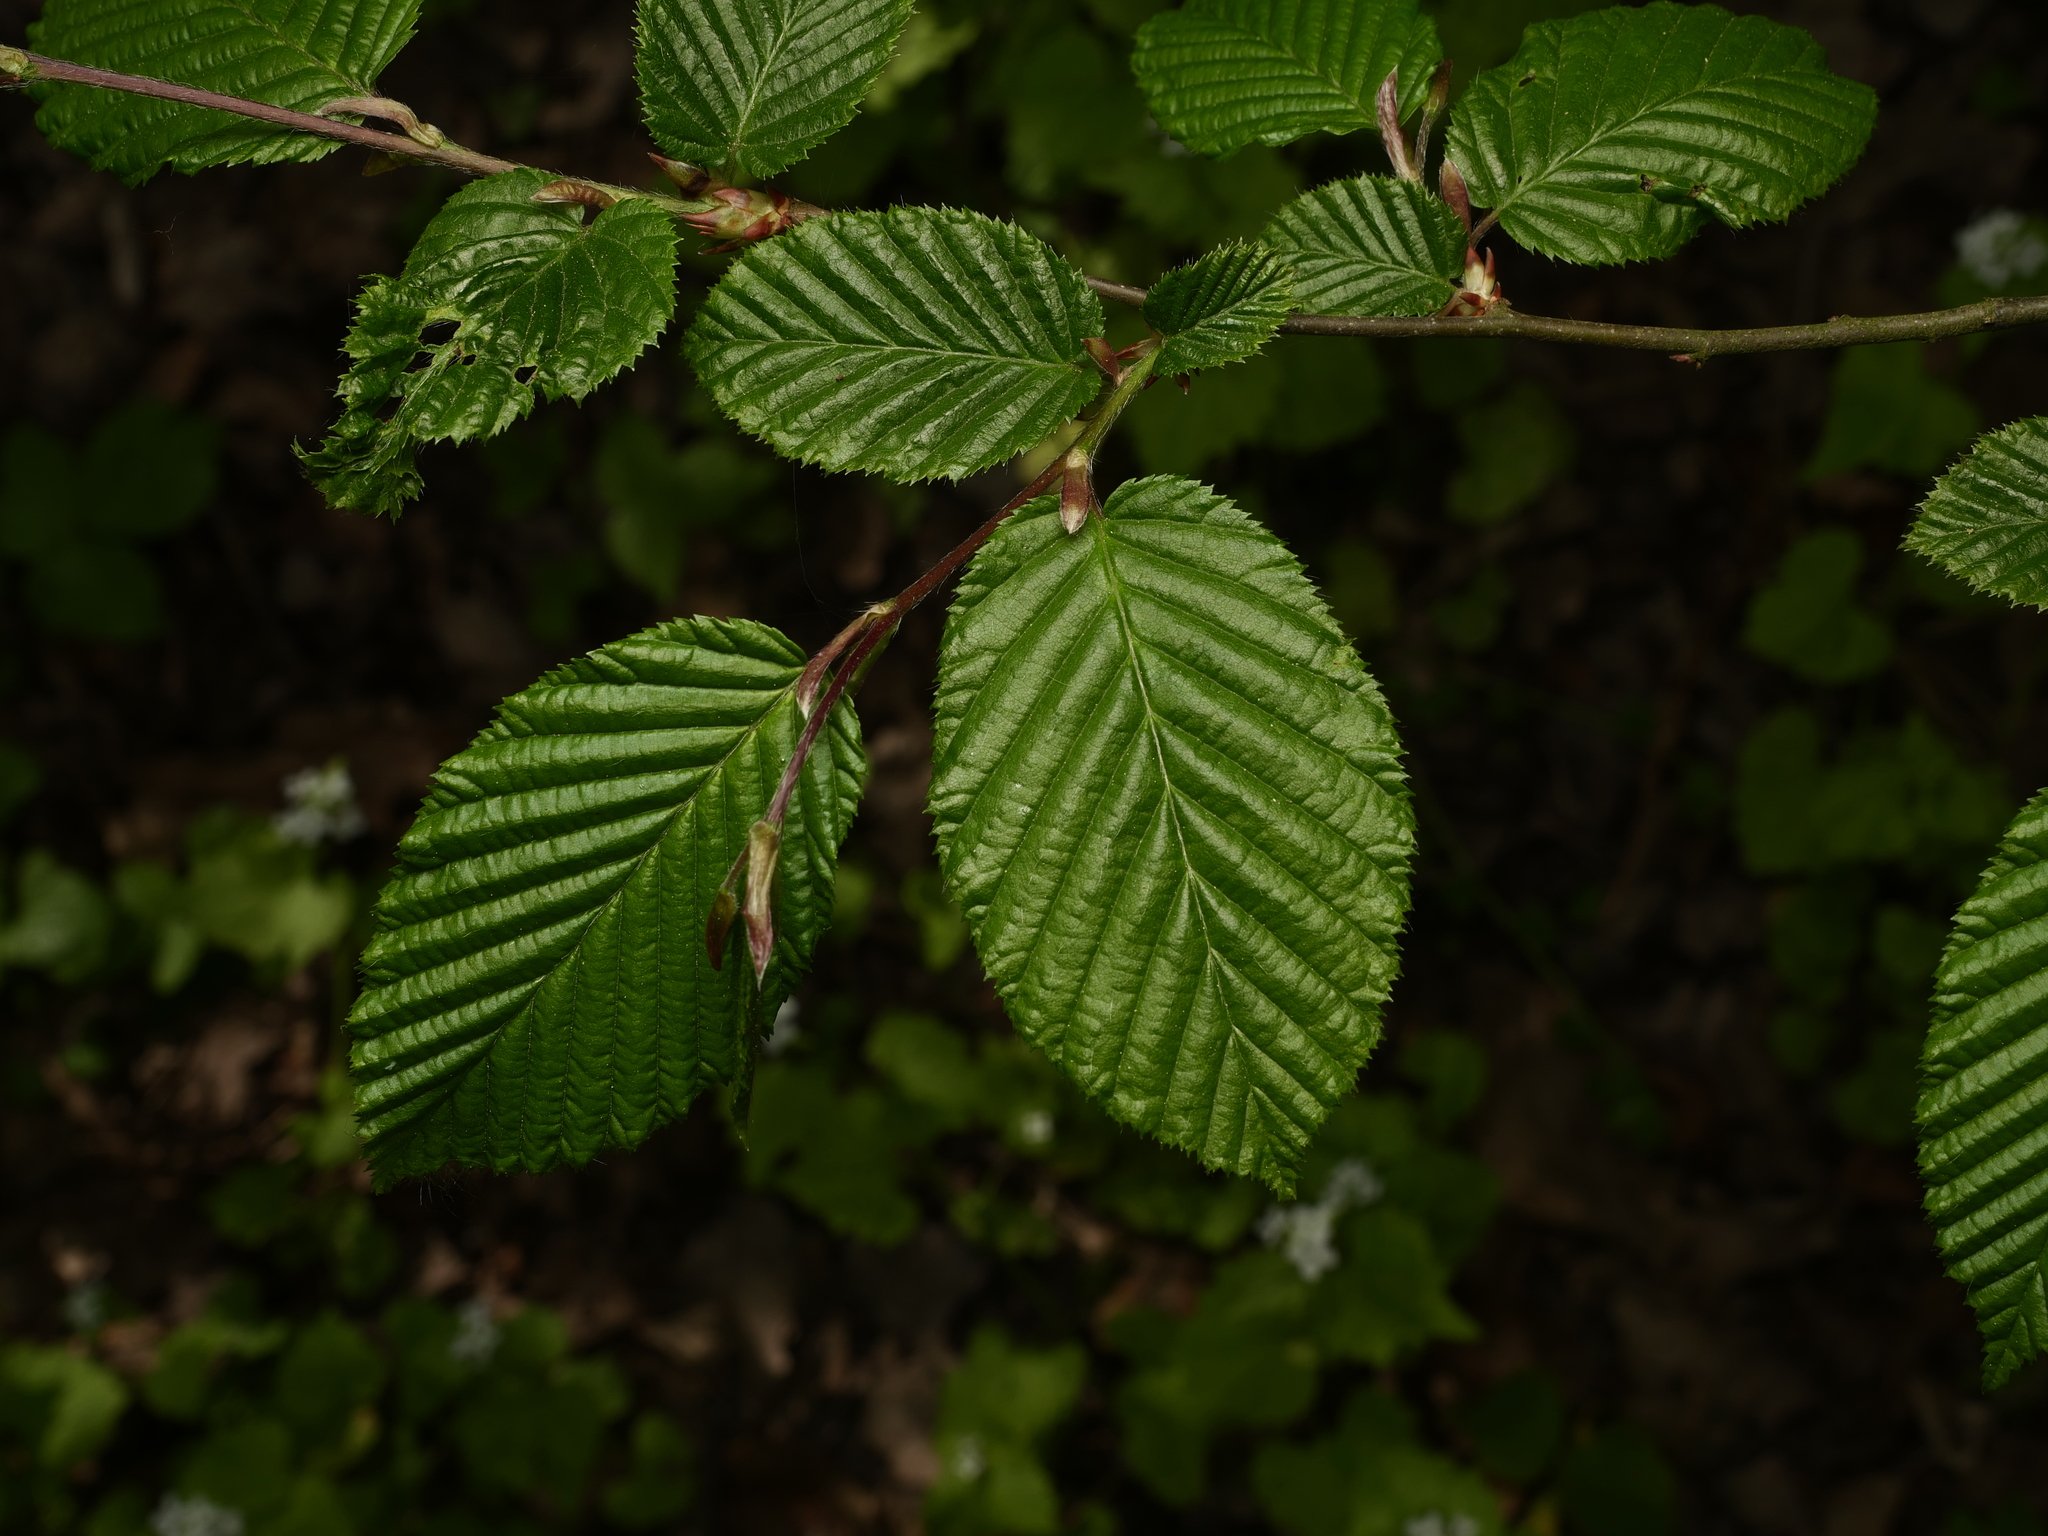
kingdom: Plantae
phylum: Tracheophyta
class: Magnoliopsida
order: Fagales
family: Betulaceae
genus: Carpinus
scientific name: Carpinus betulus
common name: Hornbeam
